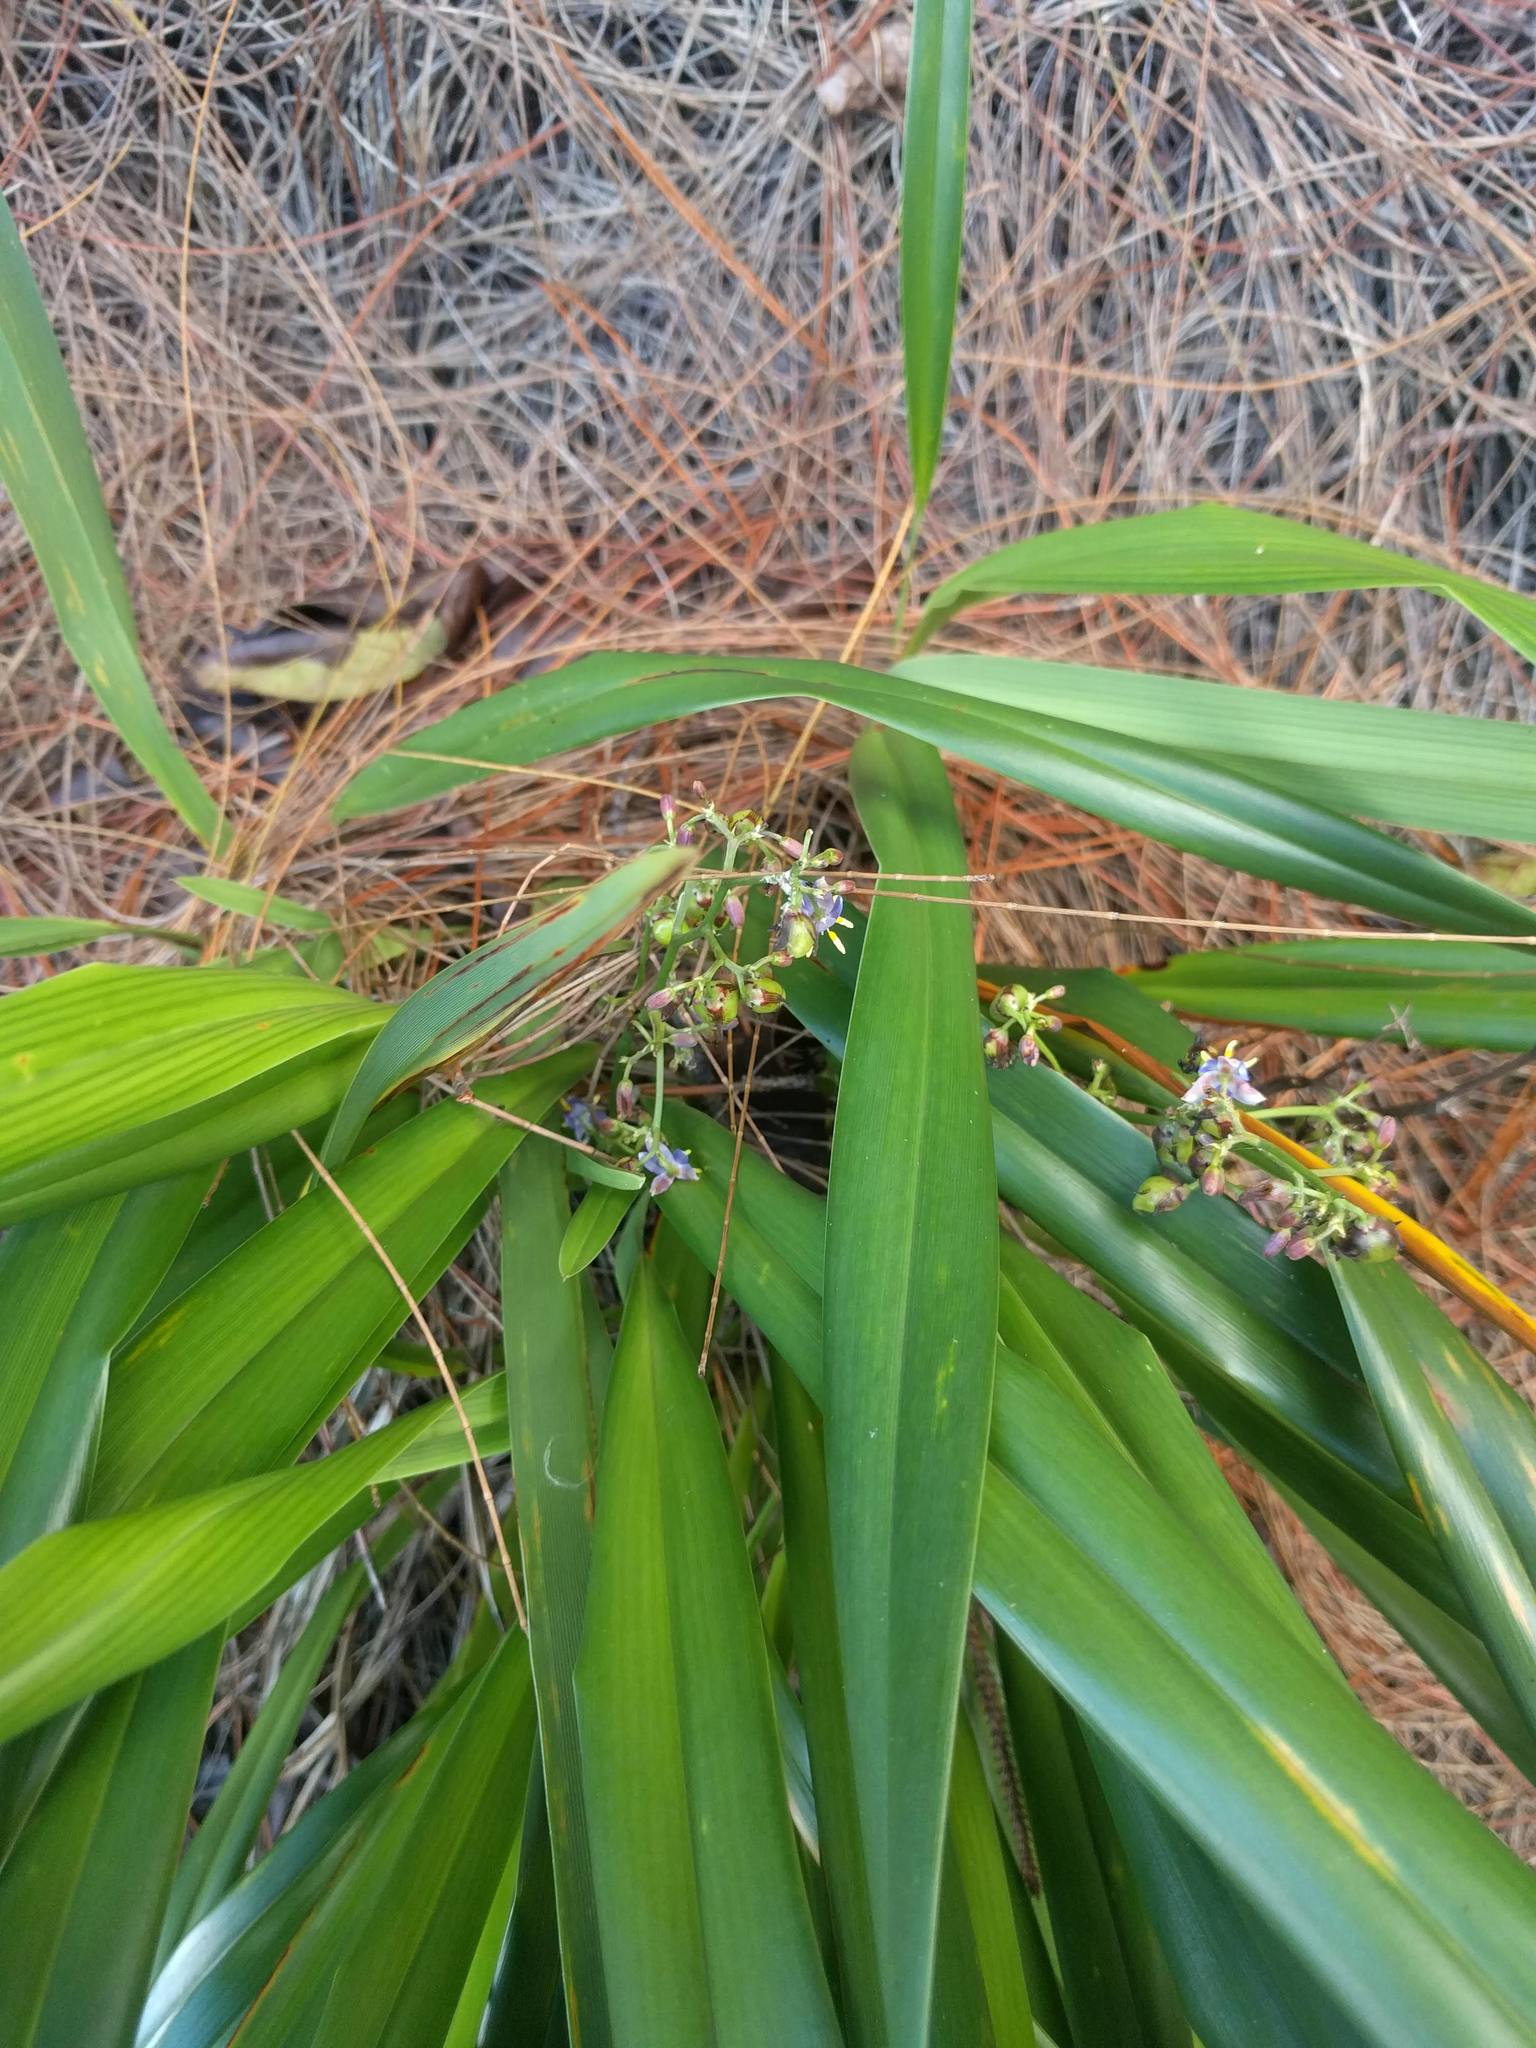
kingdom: Plantae
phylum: Tracheophyta
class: Liliopsida
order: Asparagales
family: Asphodelaceae
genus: Dianella
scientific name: Dianella sandwicensis
